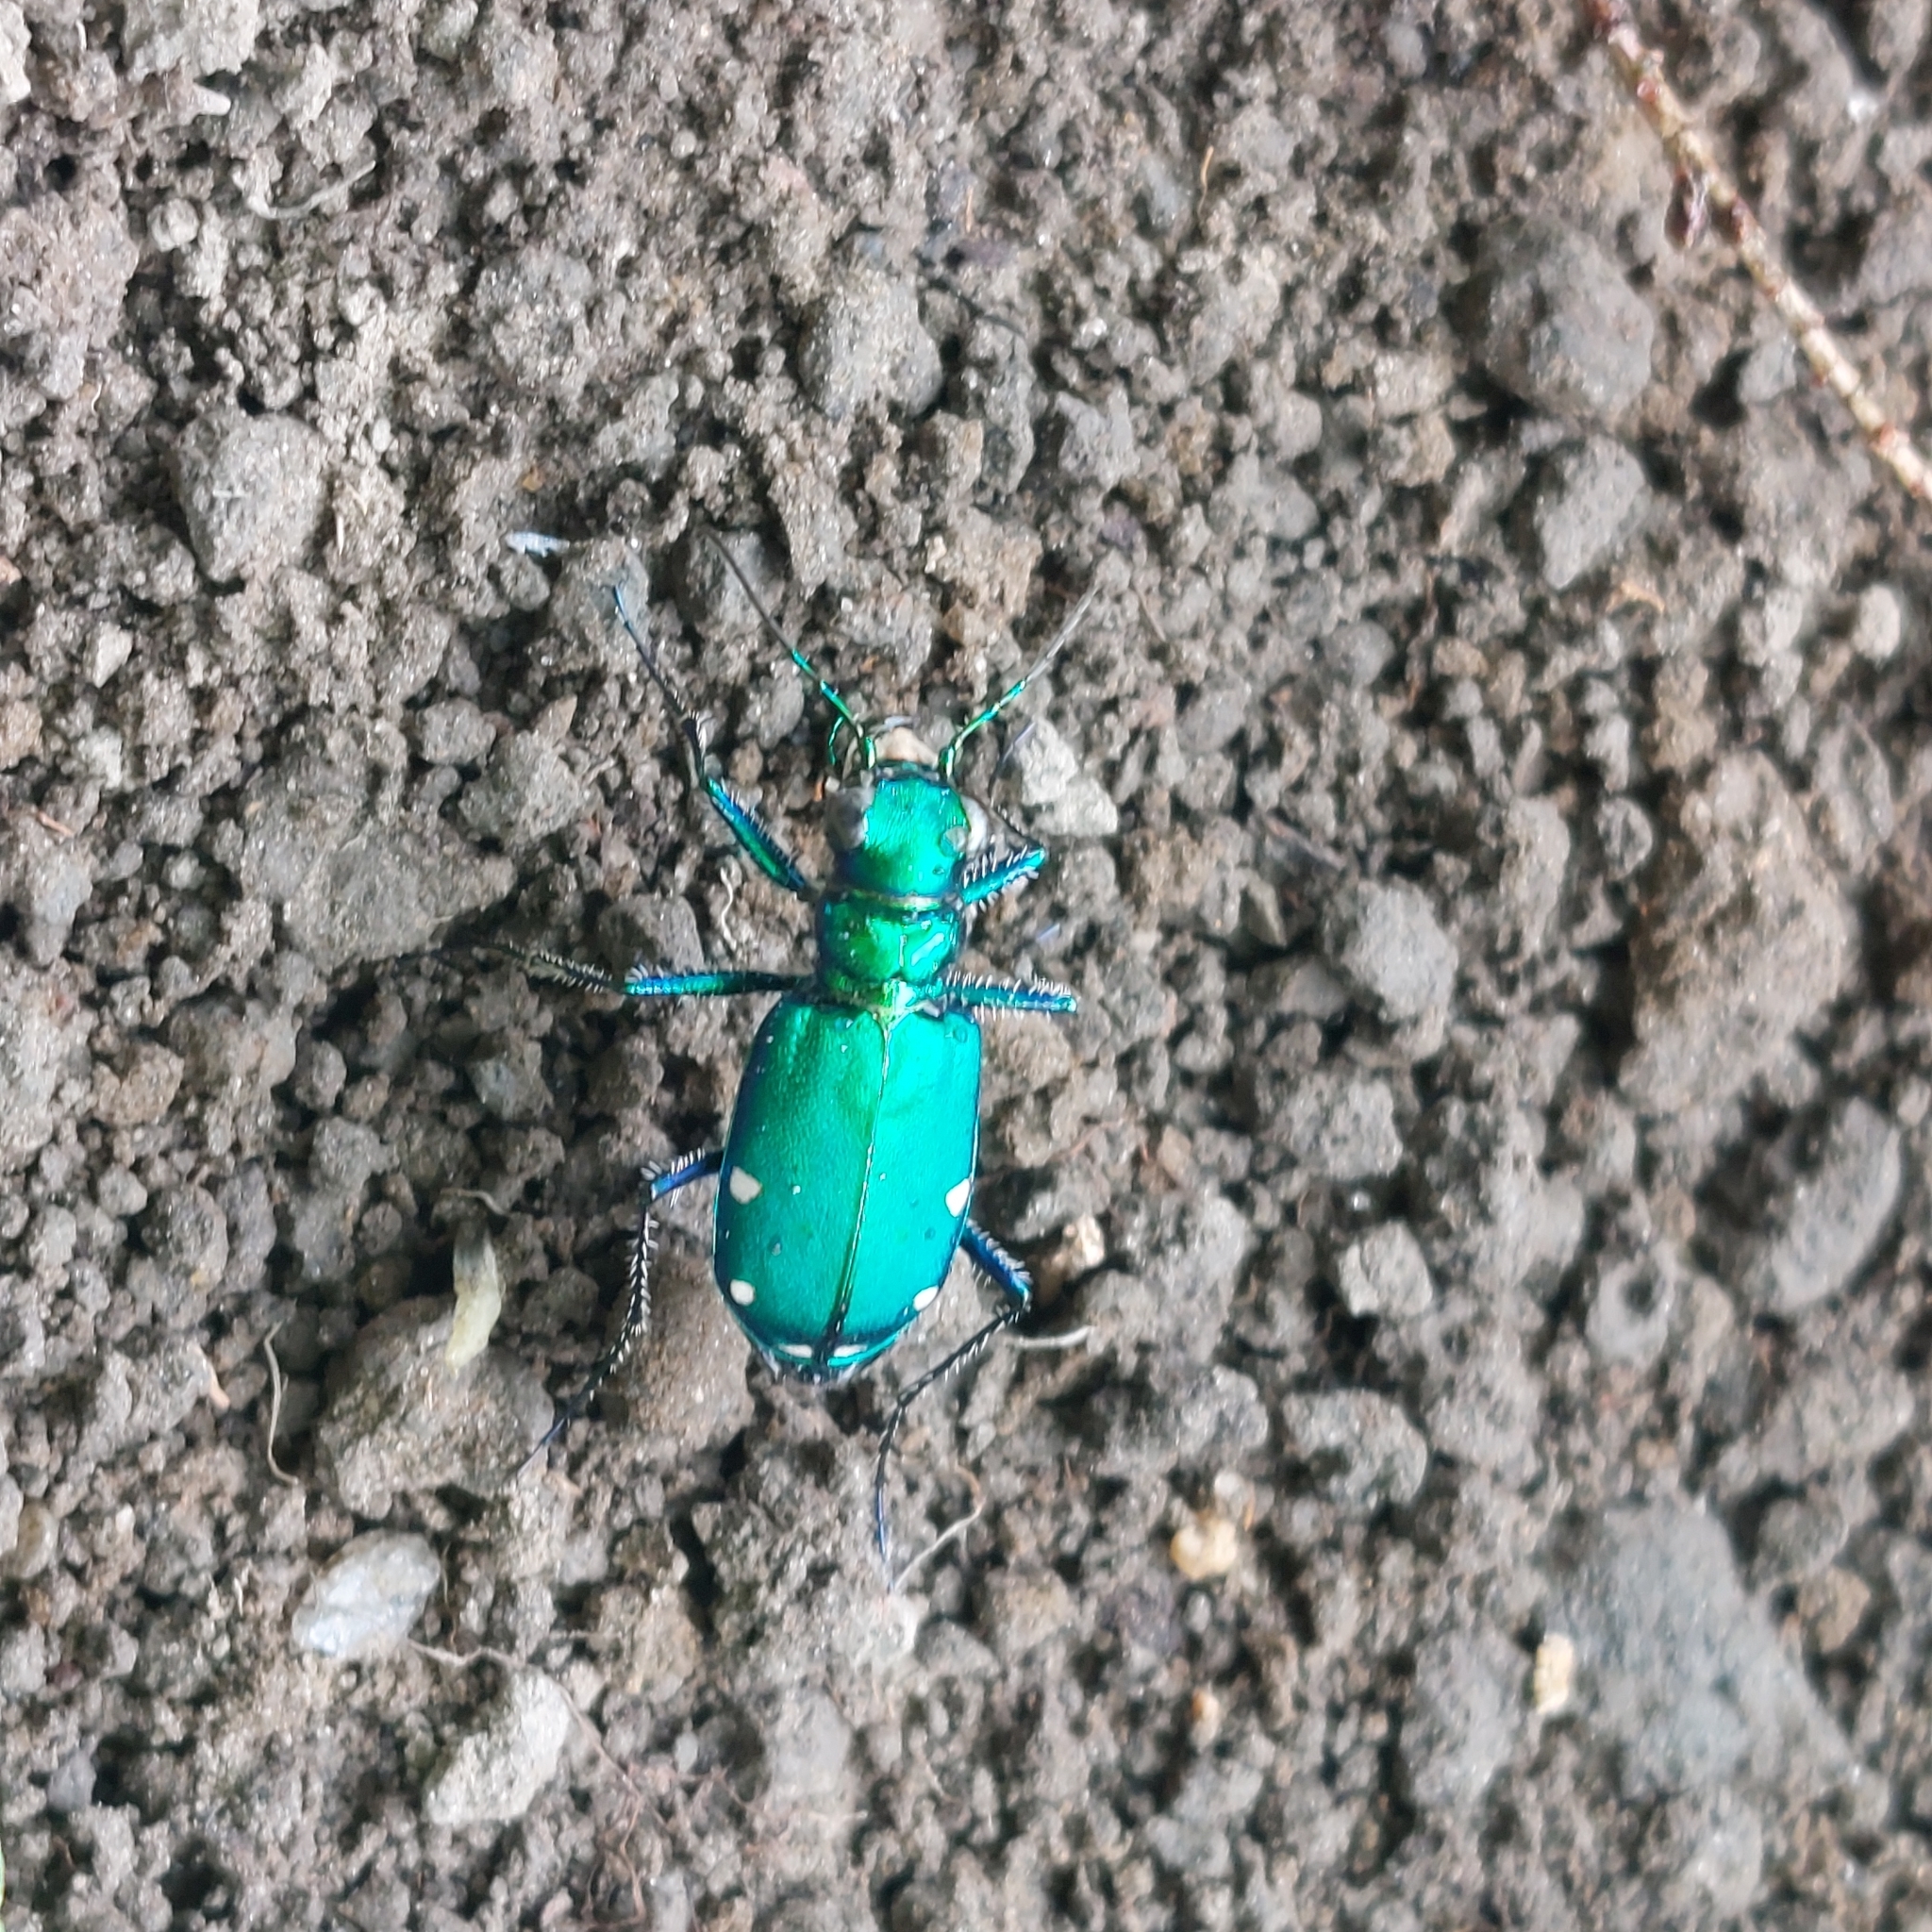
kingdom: Animalia
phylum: Arthropoda
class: Insecta
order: Coleoptera
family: Carabidae
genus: Cicindela
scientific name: Cicindela sexguttata
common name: Six-spotted tiger beetle
